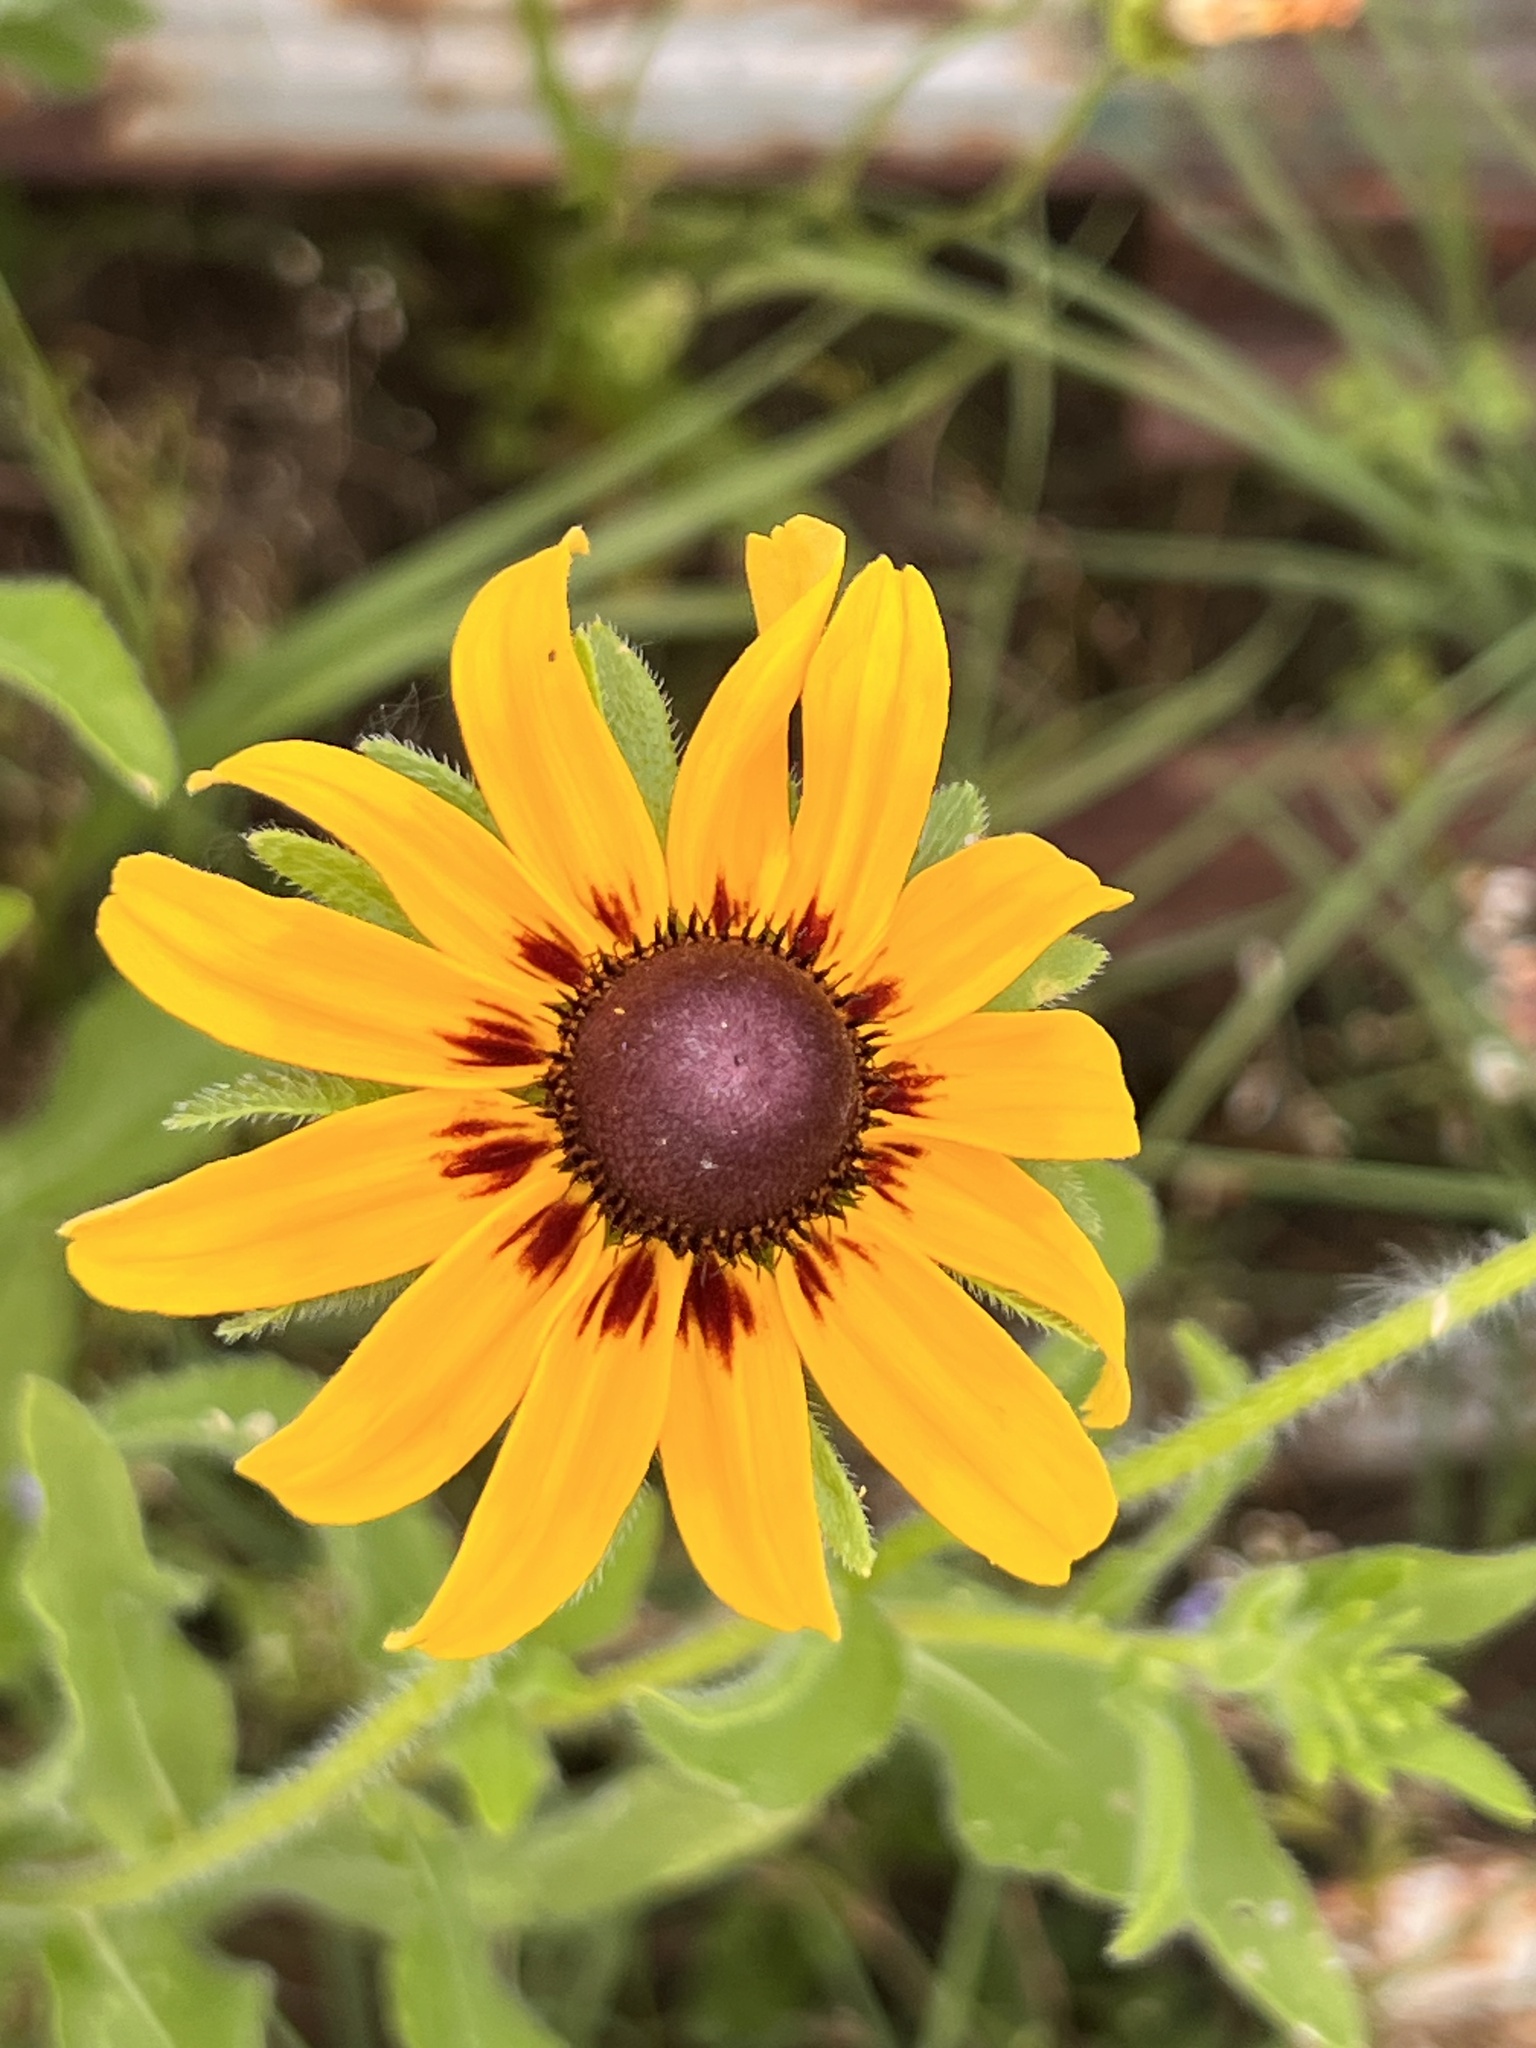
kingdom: Plantae
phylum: Tracheophyta
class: Magnoliopsida
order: Asterales
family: Asteraceae
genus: Rudbeckia
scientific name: Rudbeckia hirta
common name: Black-eyed-susan
